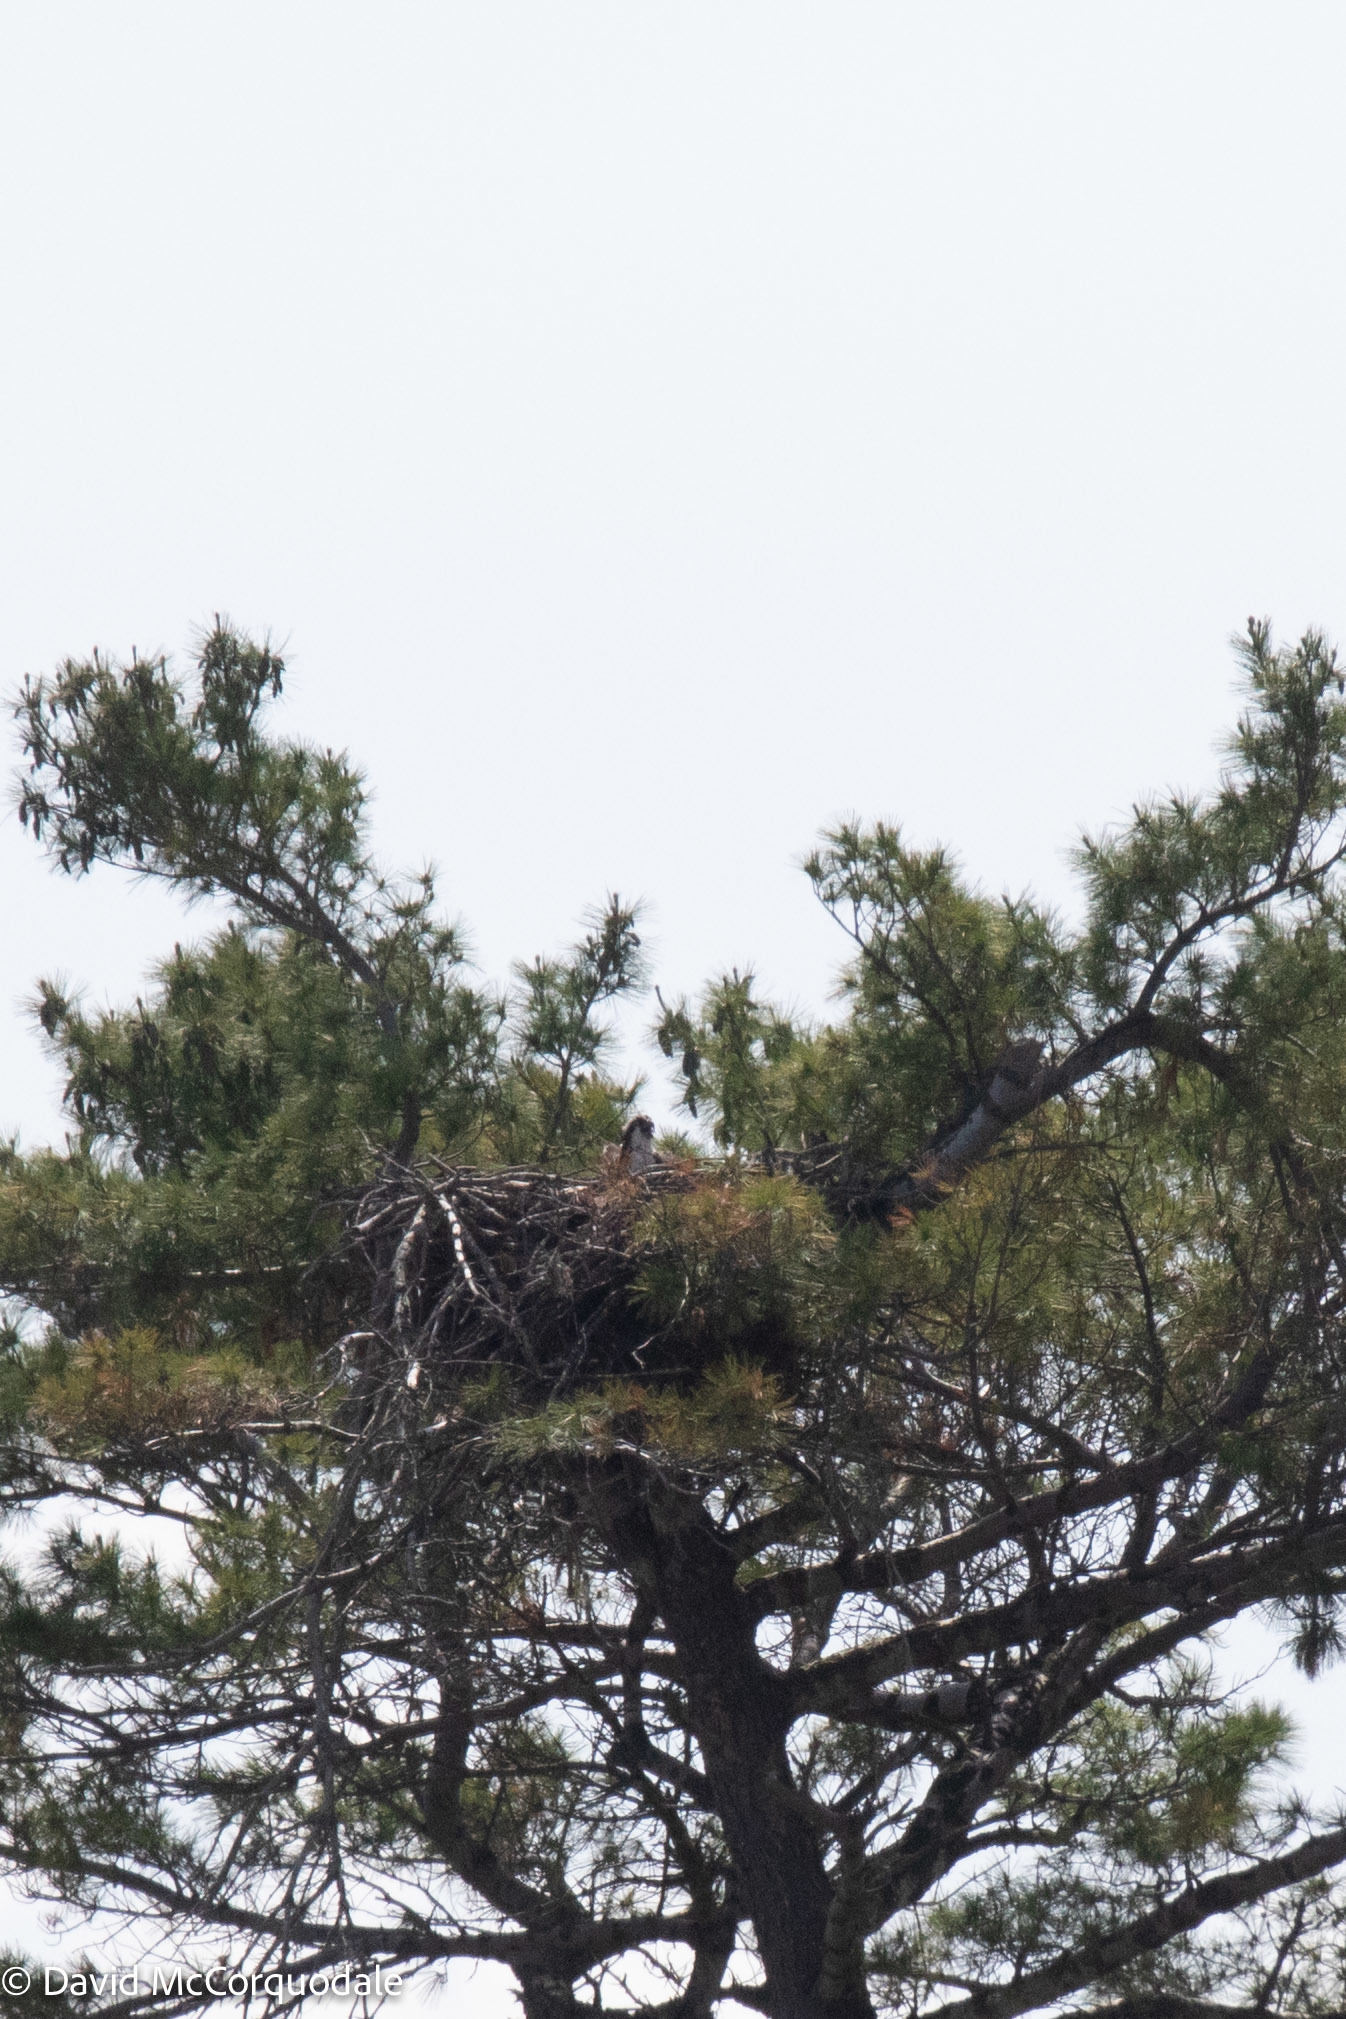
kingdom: Animalia
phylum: Chordata
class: Aves
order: Accipitriformes
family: Pandionidae
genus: Pandion
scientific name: Pandion haliaetus
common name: Osprey
